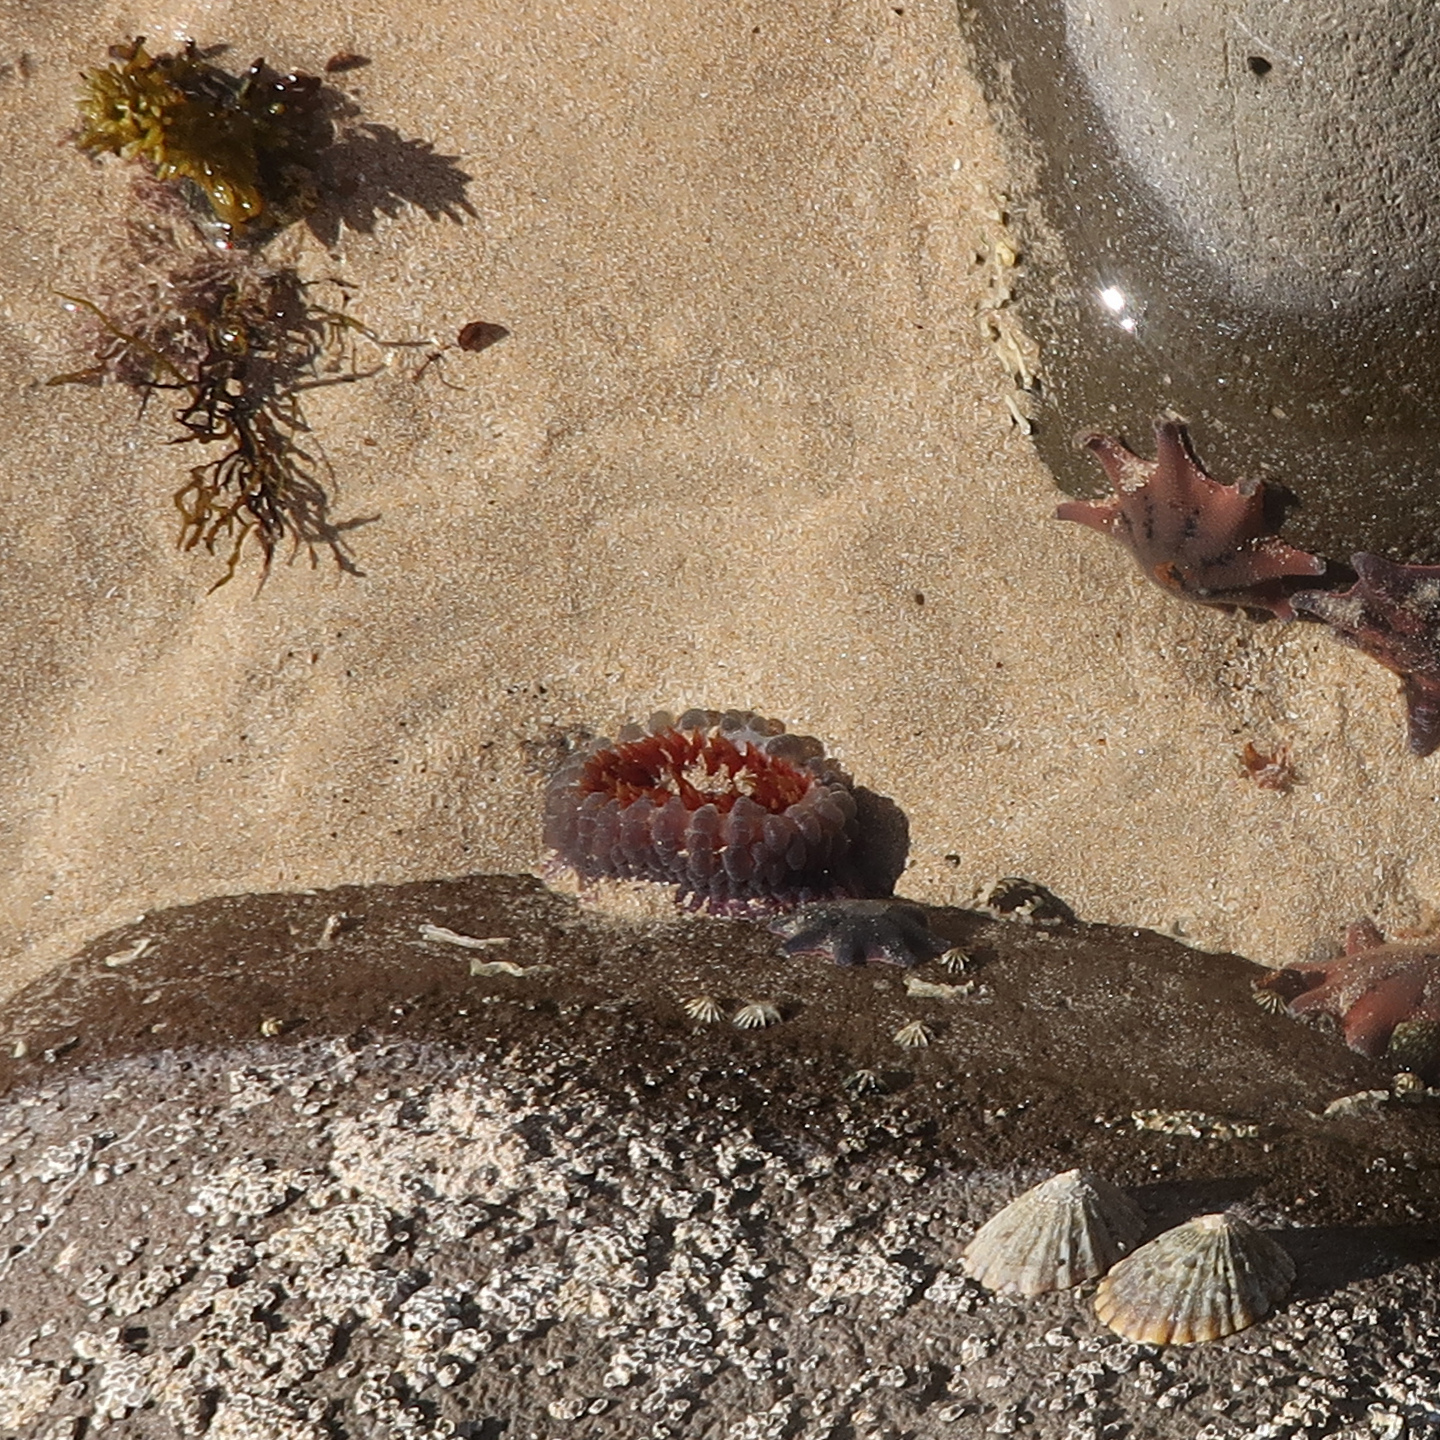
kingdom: Animalia
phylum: Cnidaria
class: Anthozoa
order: Actiniaria
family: Actiniidae
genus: Phlyctenanthus
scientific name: Phlyctenanthus australis
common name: Southern anemone
